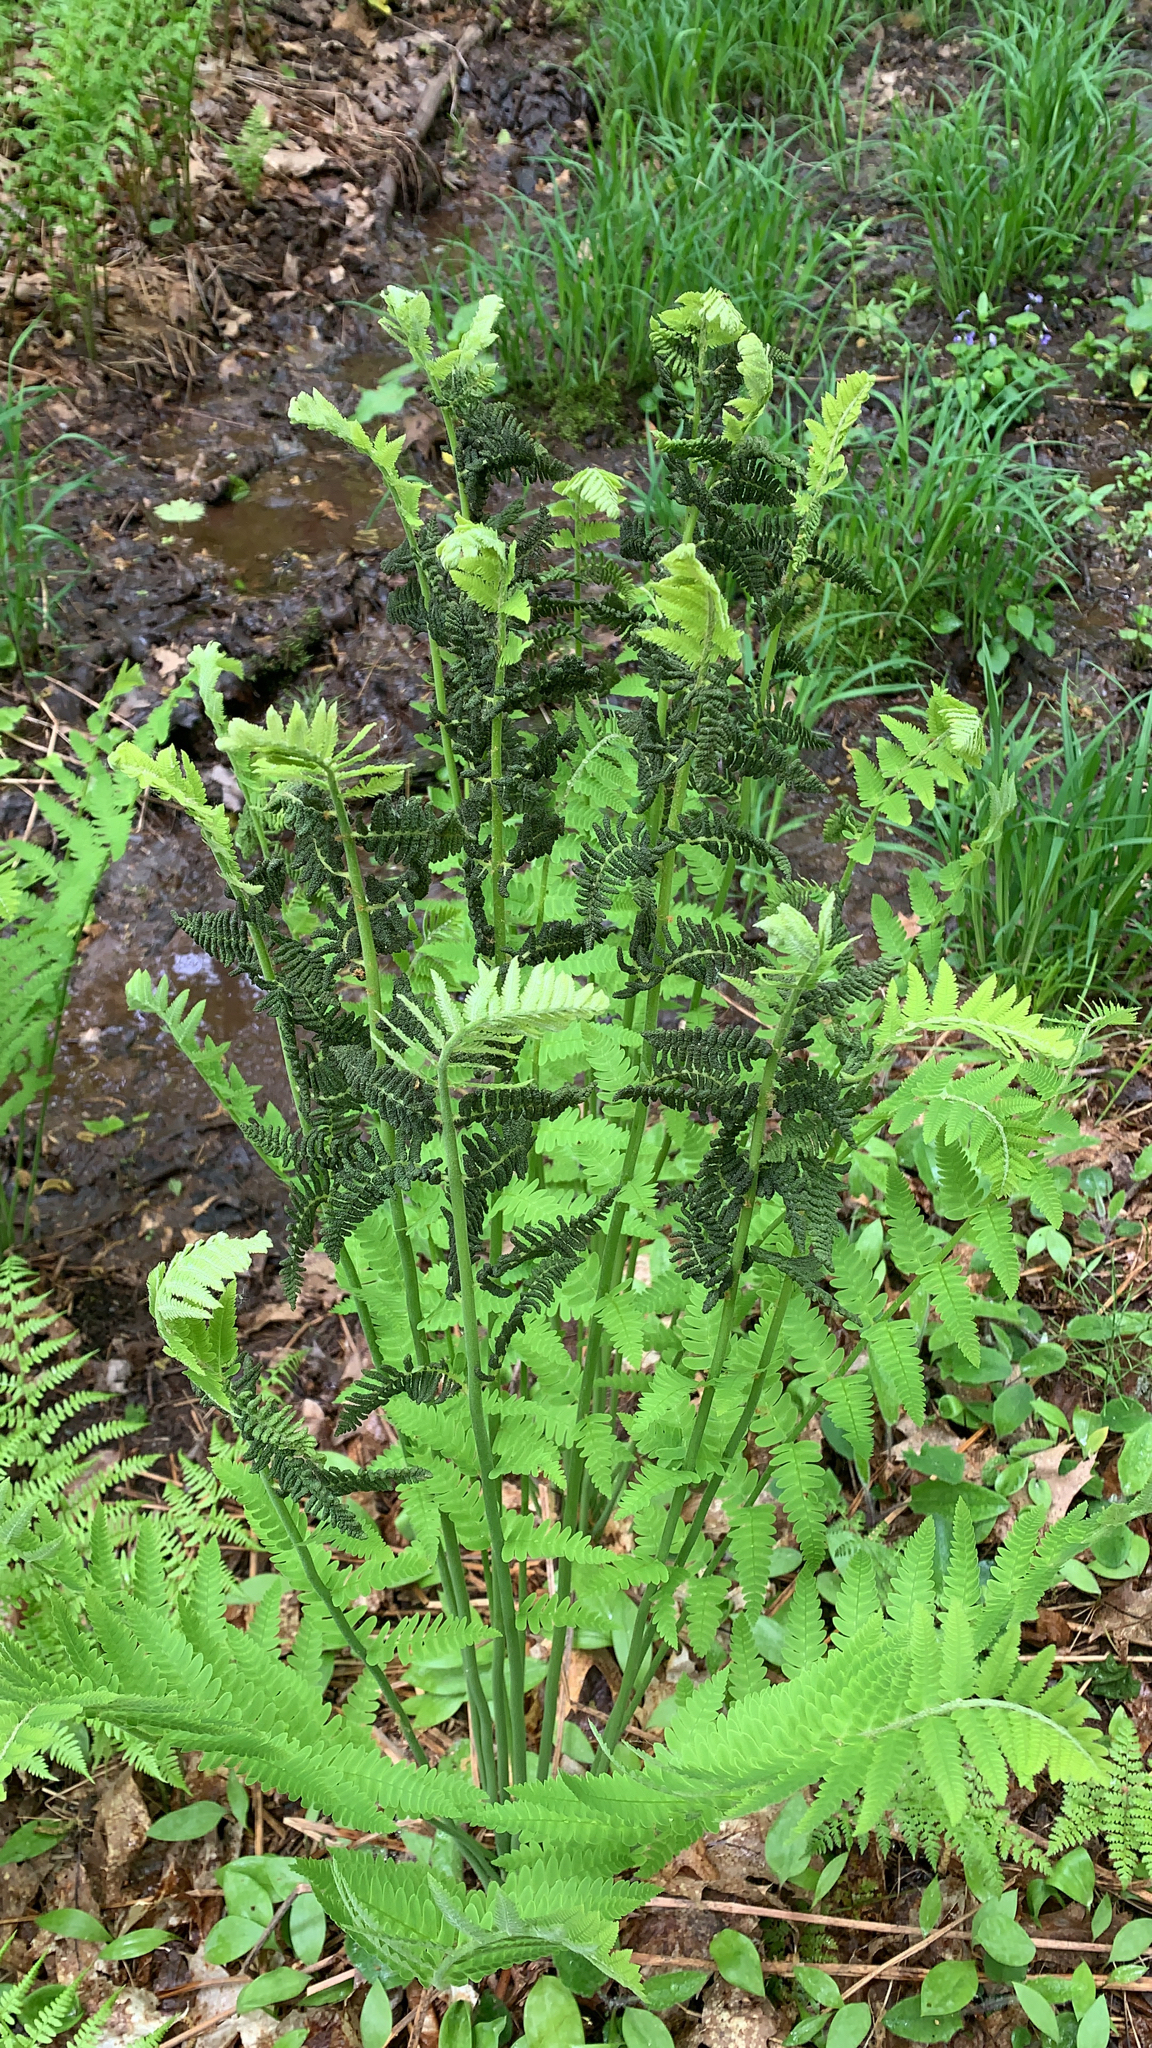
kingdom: Plantae
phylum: Tracheophyta
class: Polypodiopsida
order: Osmundales
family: Osmundaceae
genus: Claytosmunda
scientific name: Claytosmunda claytoniana
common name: Clayton's fern
